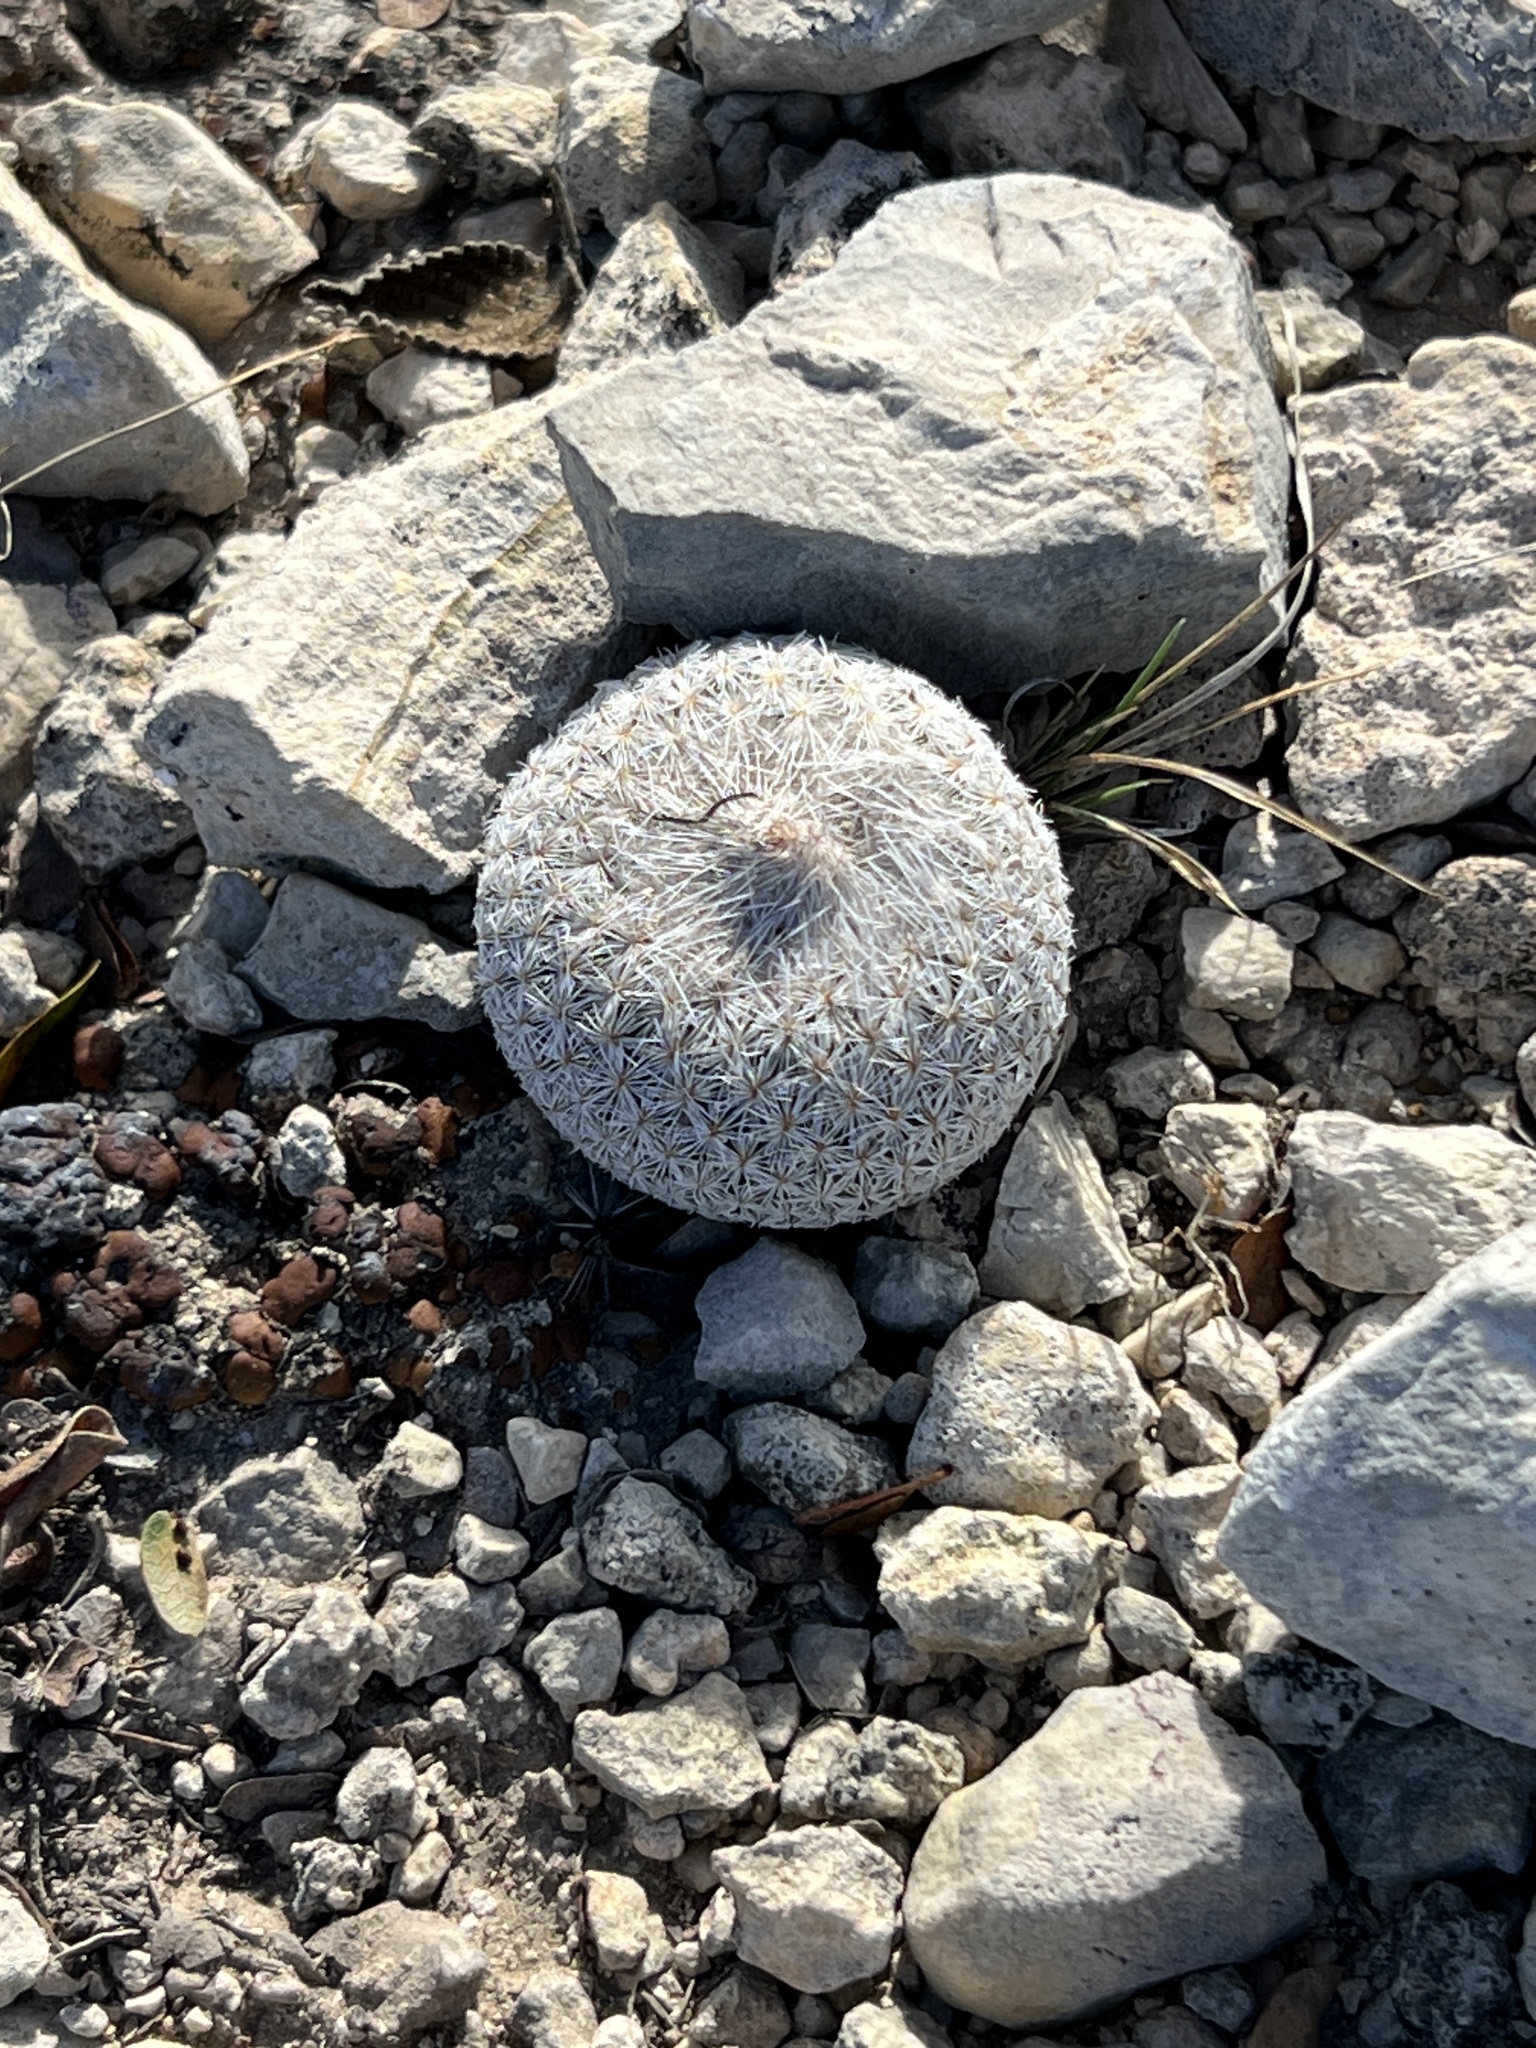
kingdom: Plantae
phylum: Tracheophyta
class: Magnoliopsida
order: Caryophyllales
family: Cactaceae
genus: Epithelantha
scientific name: Epithelantha micromeris
